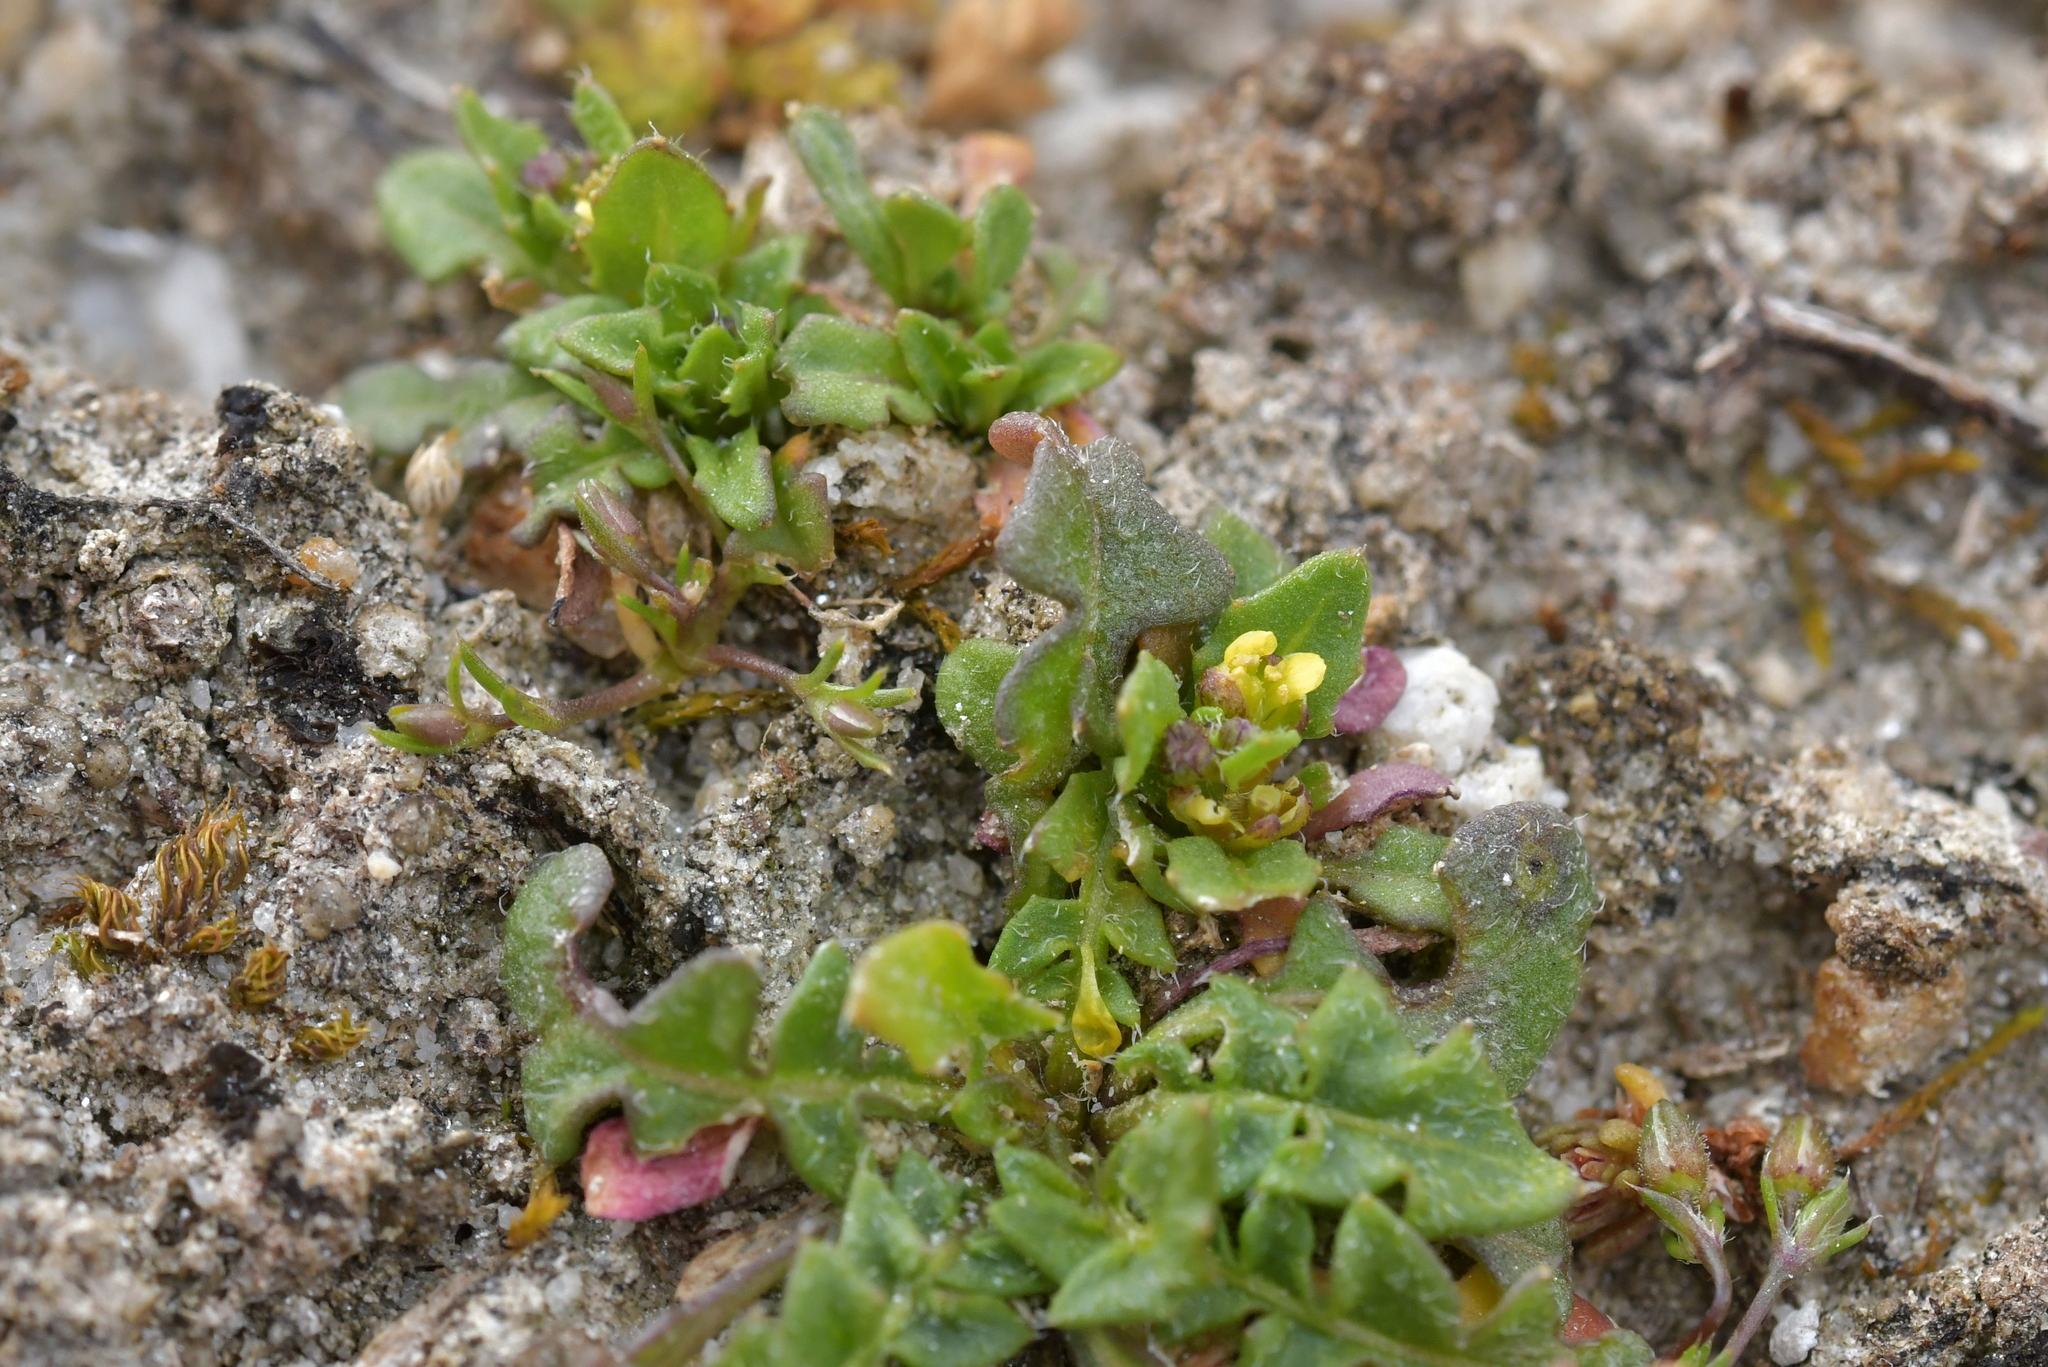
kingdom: Plantae
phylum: Tracheophyta
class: Magnoliopsida
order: Brassicales
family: Brassicaceae
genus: Sisymbrium
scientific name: Sisymbrium polyceratium
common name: Shortfruit hedgemustard
